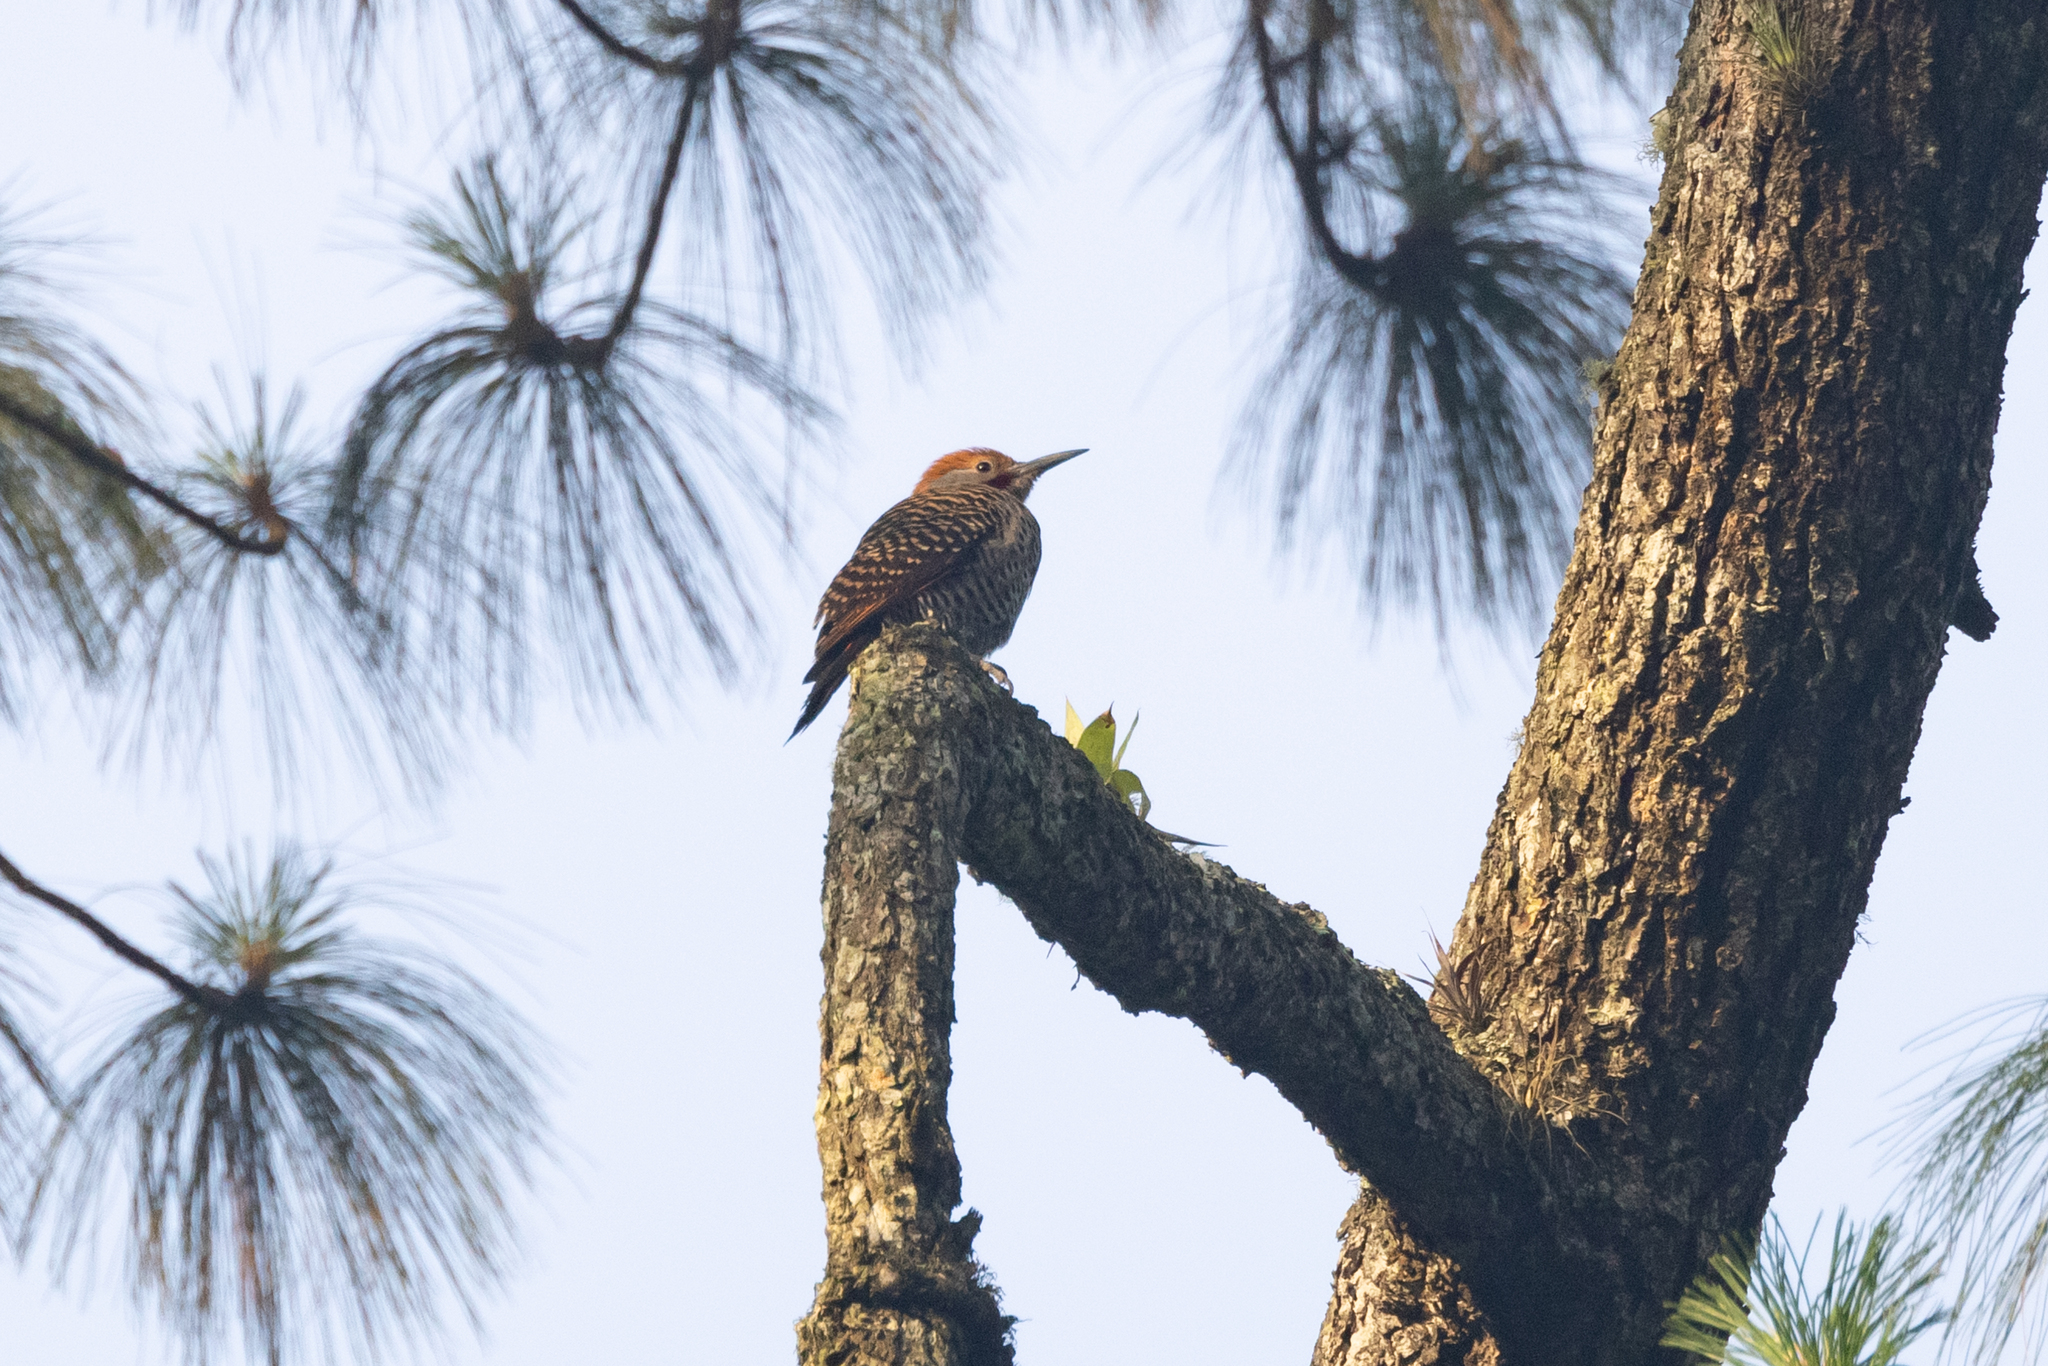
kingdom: Animalia
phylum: Chordata
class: Aves
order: Piciformes
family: Picidae
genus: Colaptes
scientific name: Colaptes auratus
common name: Northern flicker
